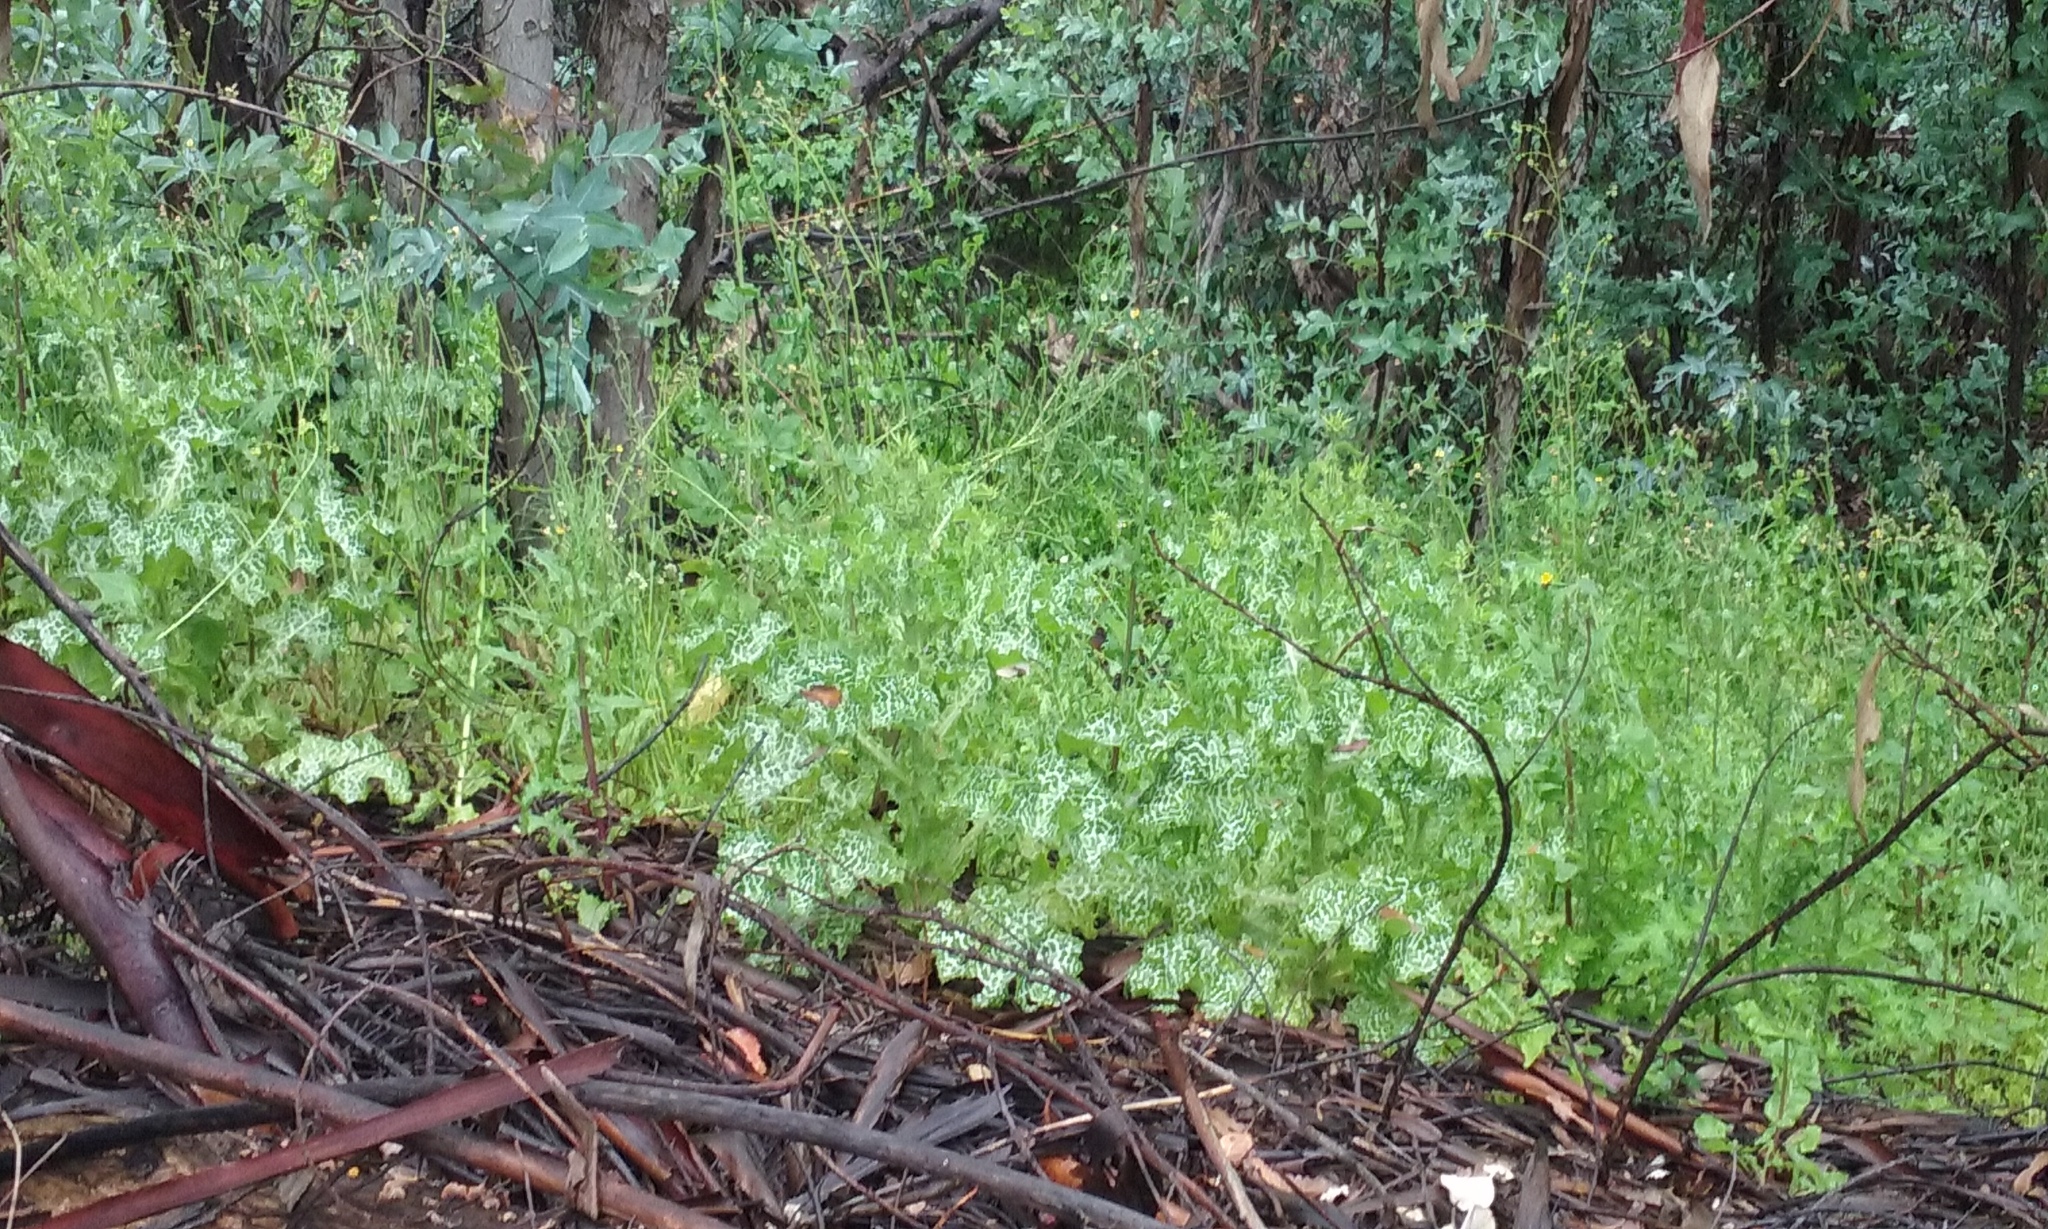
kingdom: Plantae
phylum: Tracheophyta
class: Magnoliopsida
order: Asterales
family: Asteraceae
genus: Silybum
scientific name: Silybum marianum
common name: Milk thistle
